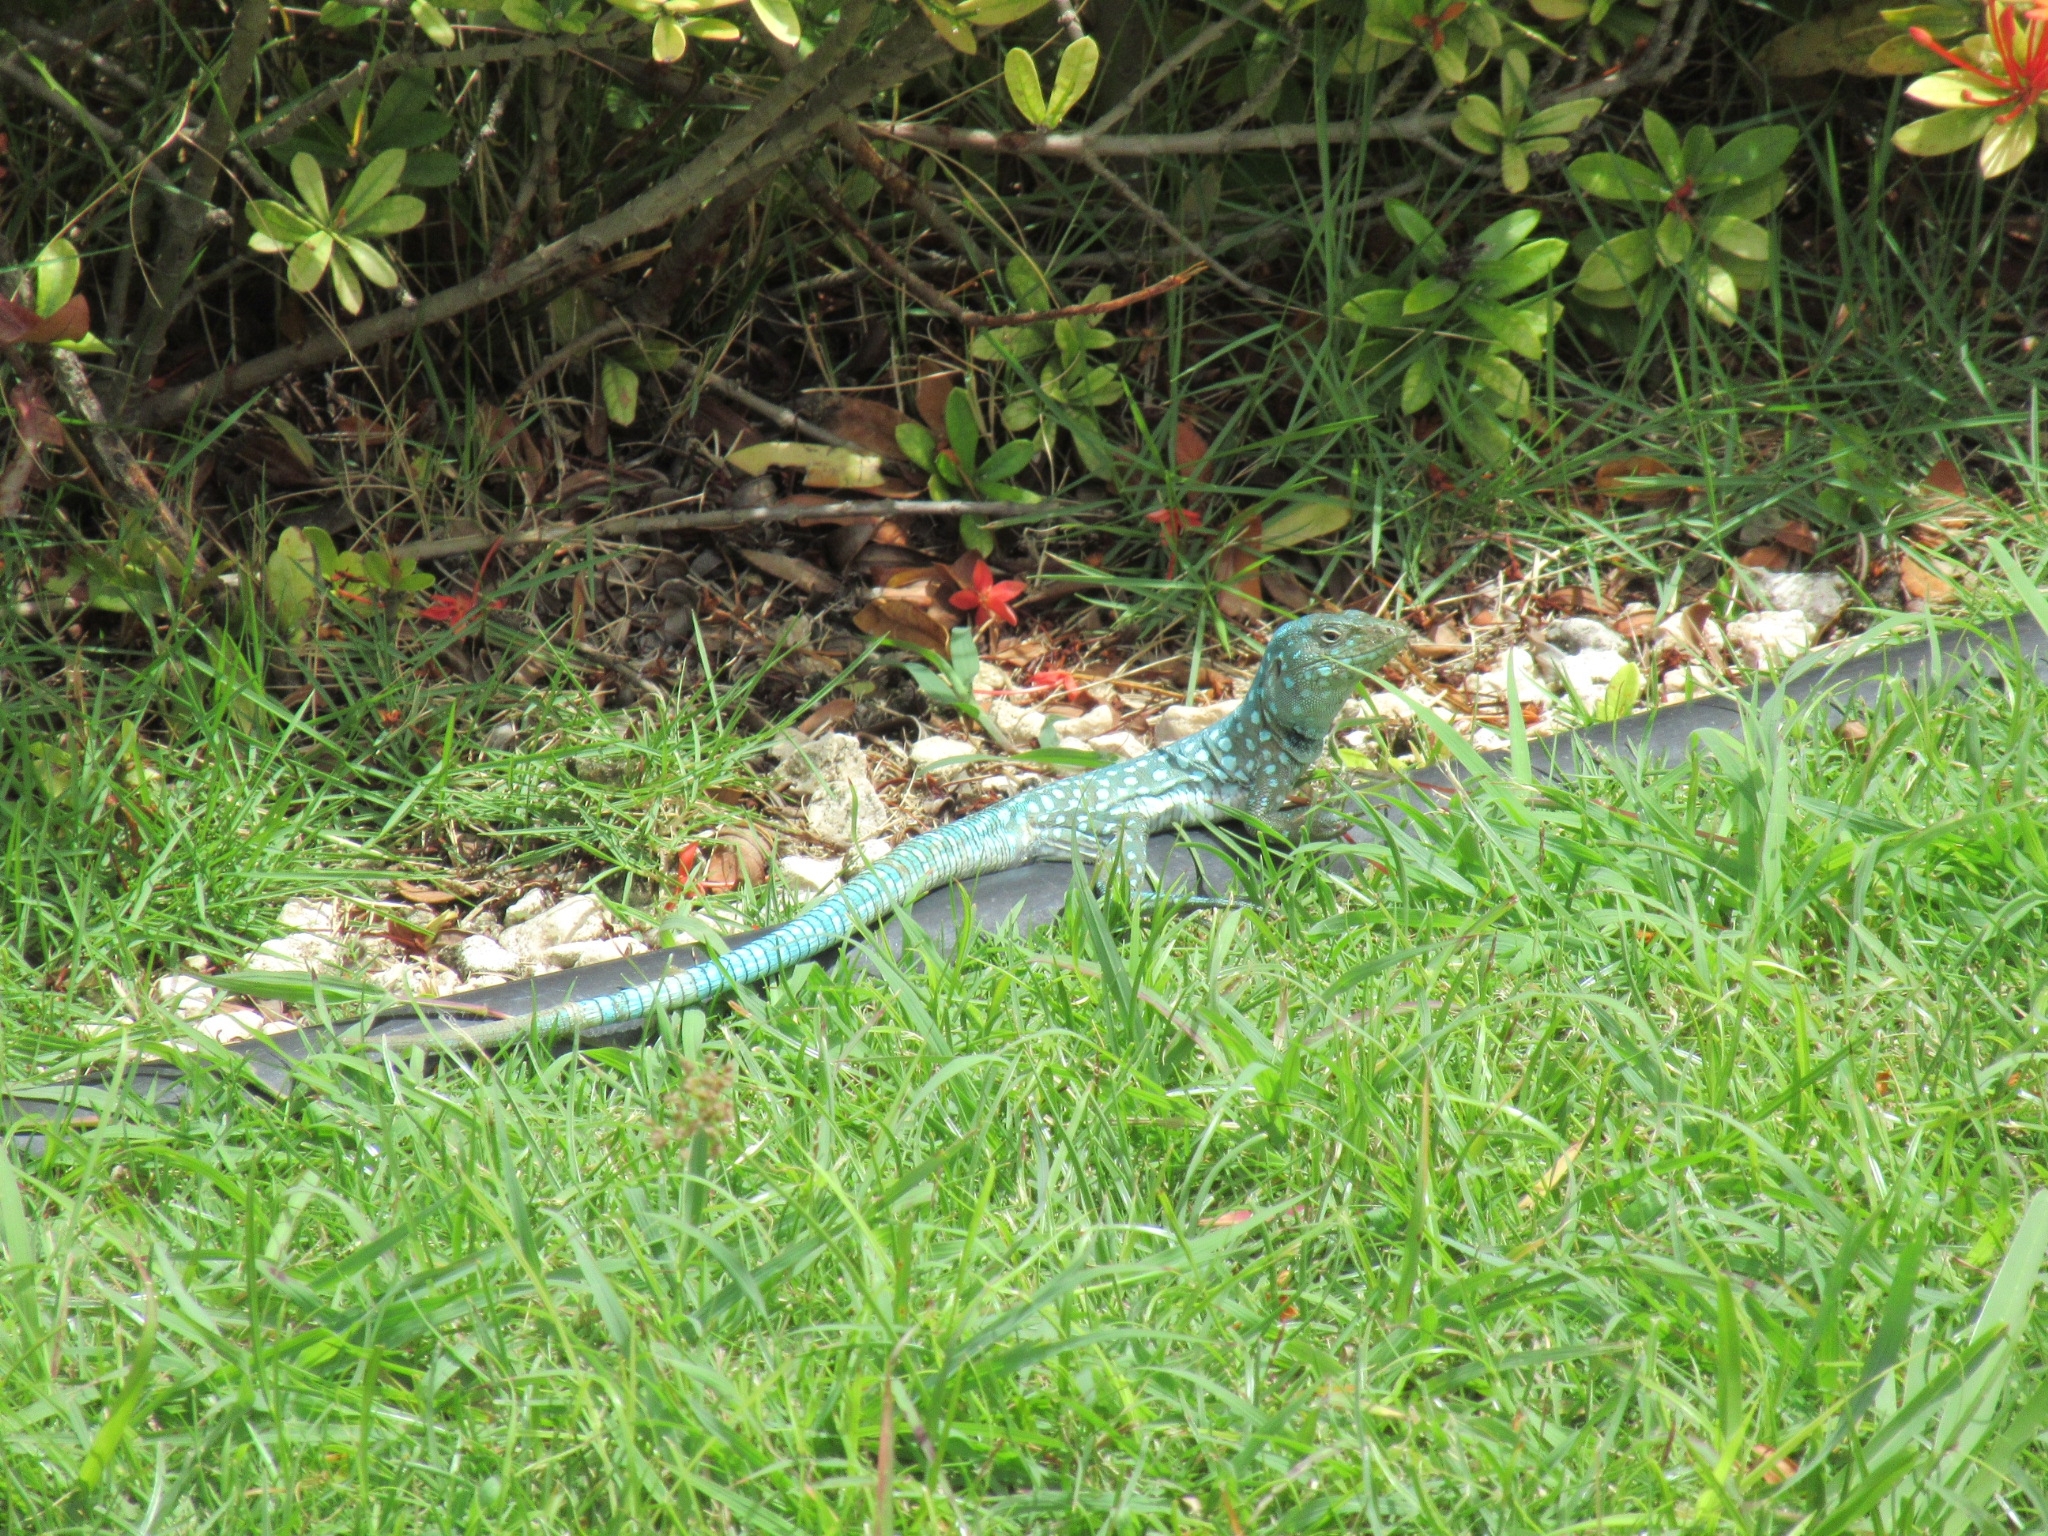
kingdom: Animalia
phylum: Chordata
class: Squamata
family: Teiidae
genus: Cnemidophorus
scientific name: Cnemidophorus arubensis
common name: Aruba whiptail
